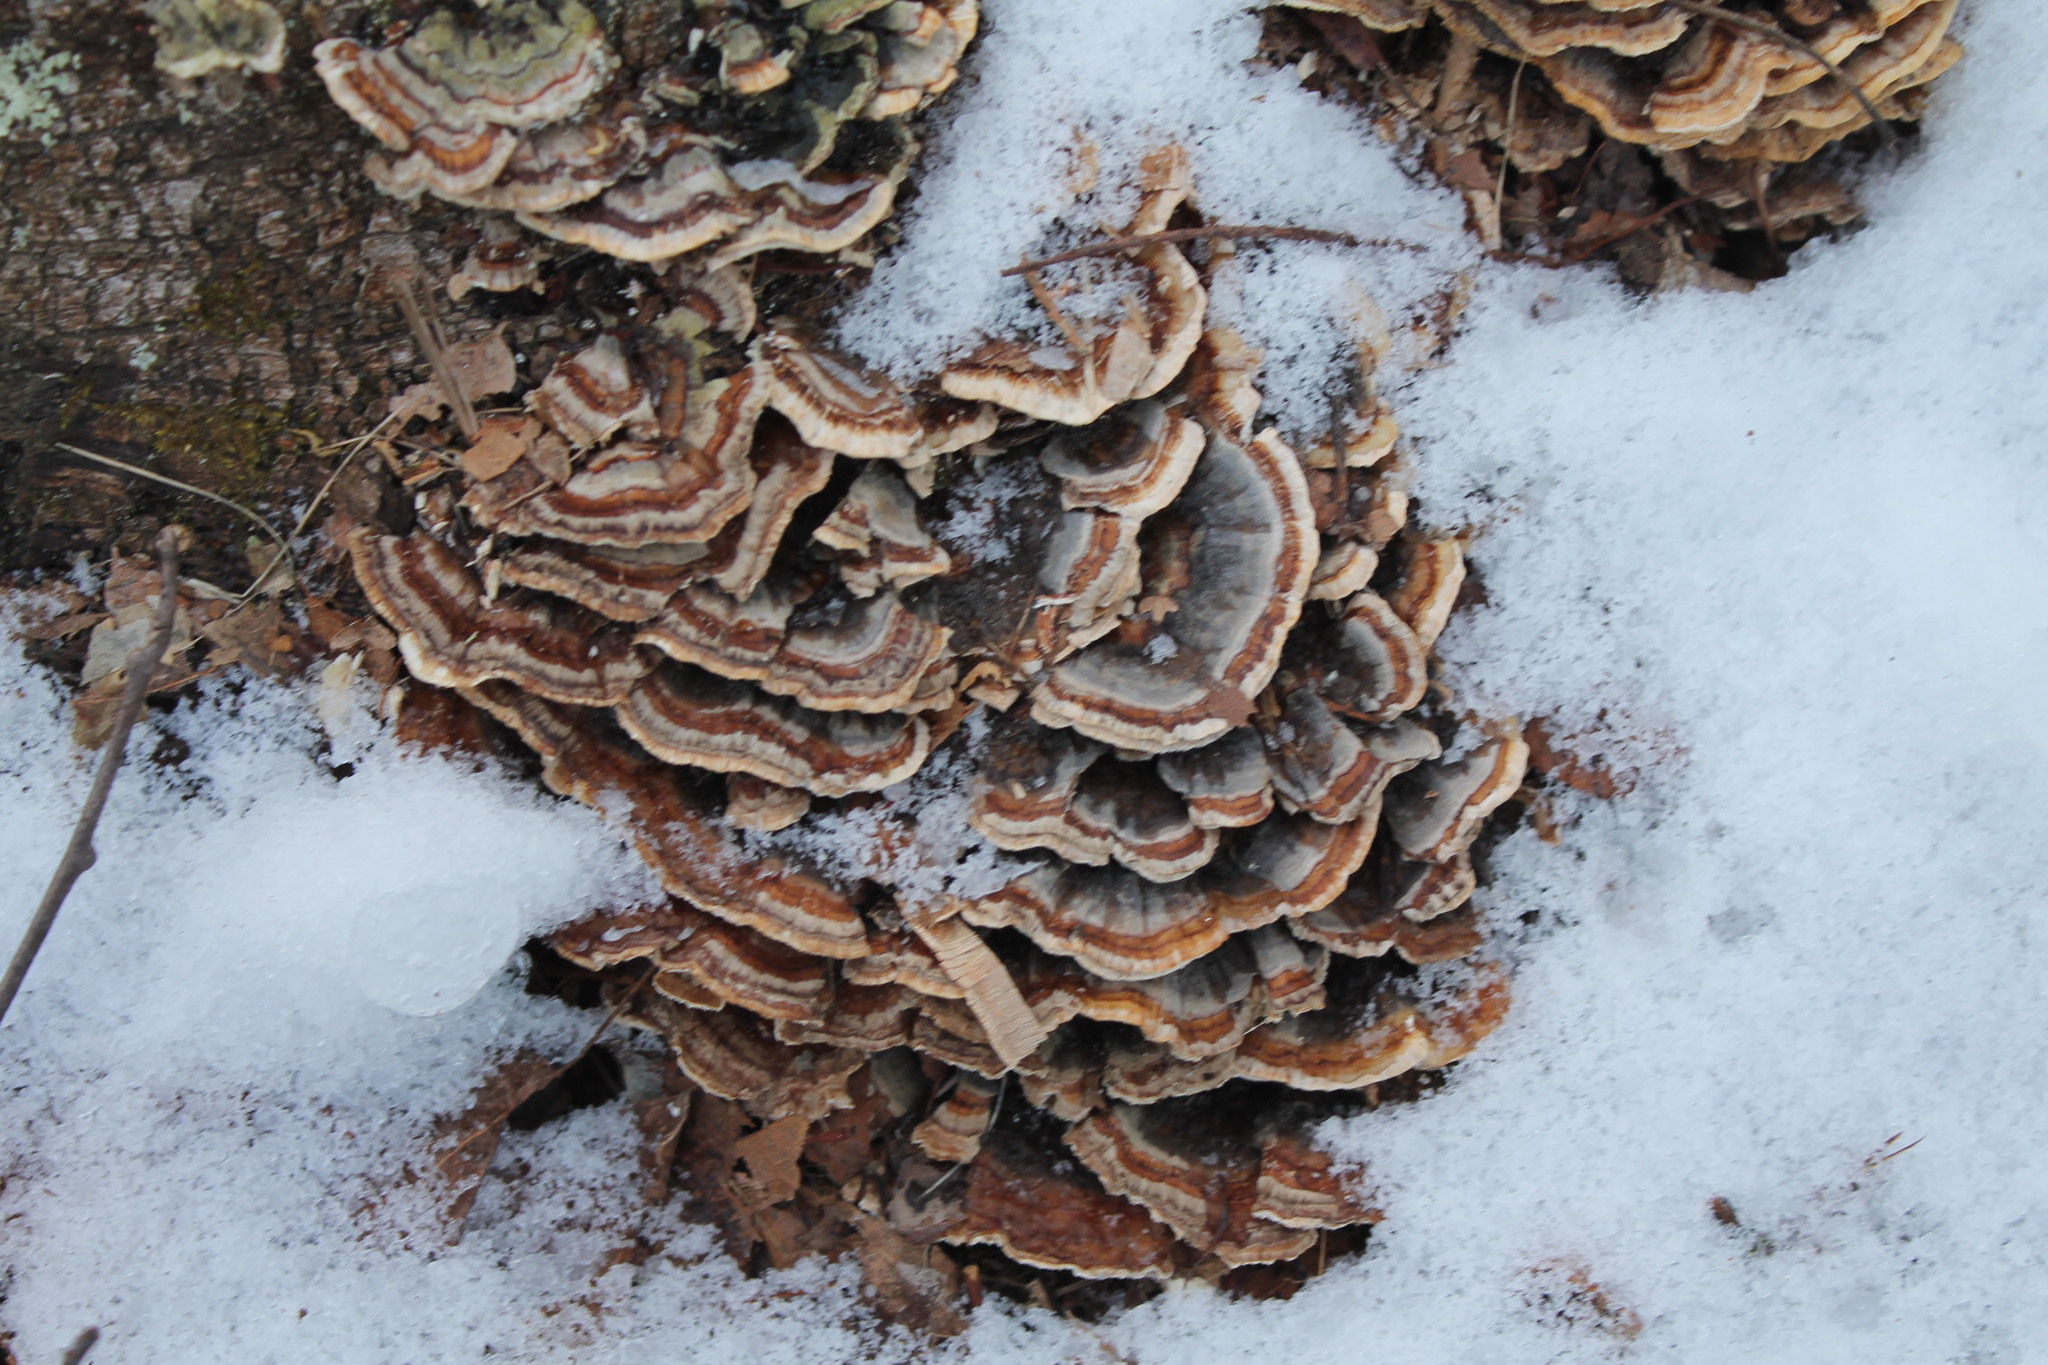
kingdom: Fungi
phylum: Basidiomycota
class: Agaricomycetes
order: Polyporales
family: Polyporaceae
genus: Trametes
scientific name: Trametes versicolor
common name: Turkeytail
